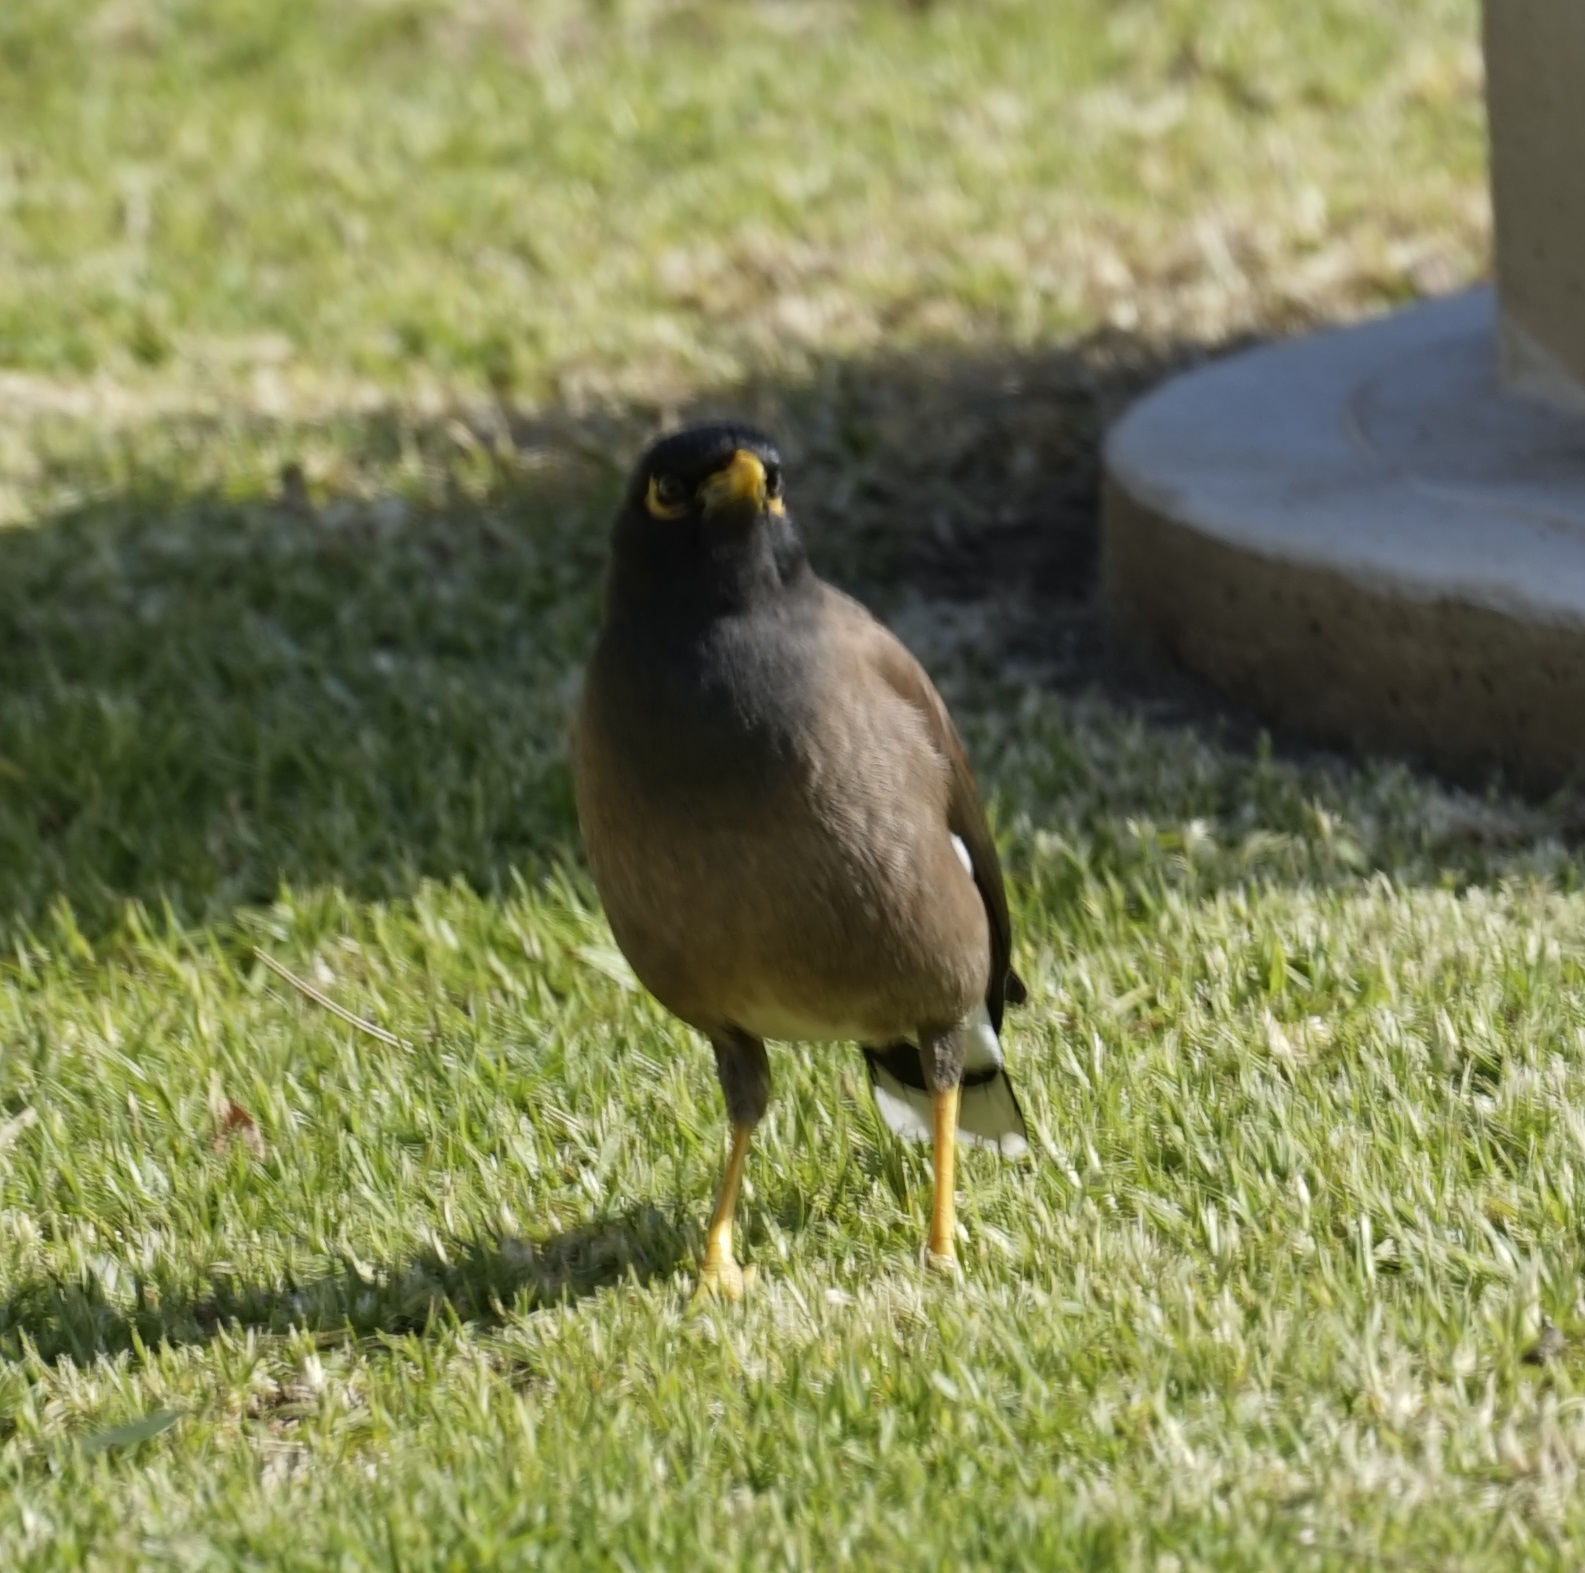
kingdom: Animalia
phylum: Chordata
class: Aves
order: Passeriformes
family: Sturnidae
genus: Acridotheres
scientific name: Acridotheres tristis
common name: Common myna
